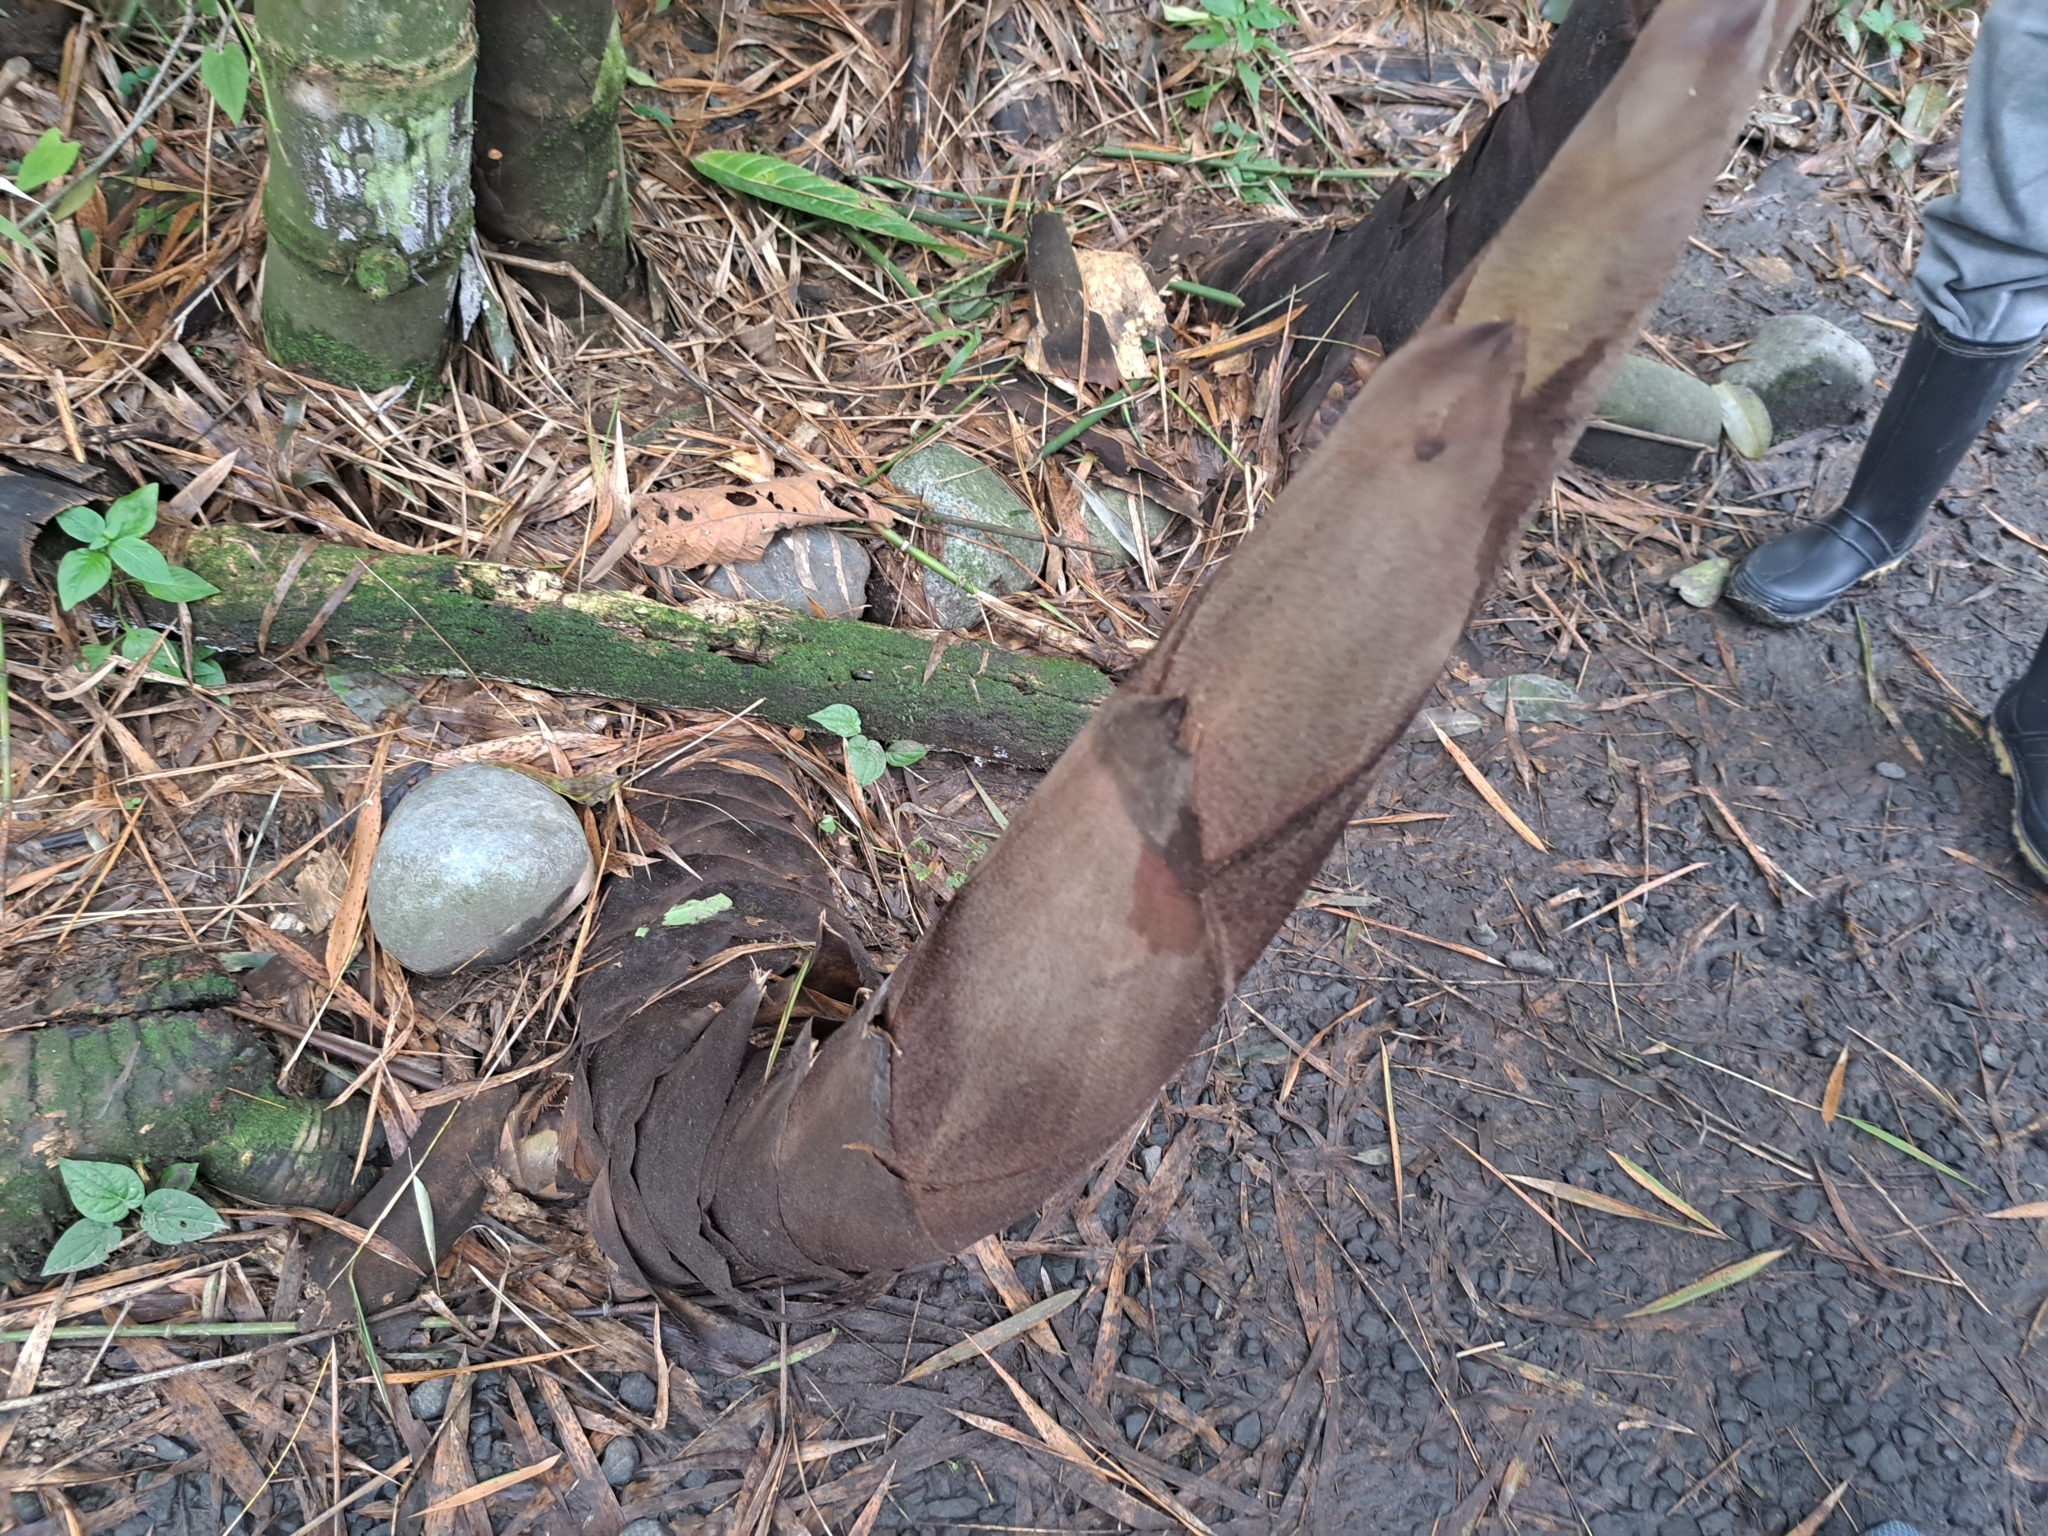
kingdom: Plantae
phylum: Tracheophyta
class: Liliopsida
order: Poales
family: Poaceae
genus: Guadua
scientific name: Guadua angustifolia
